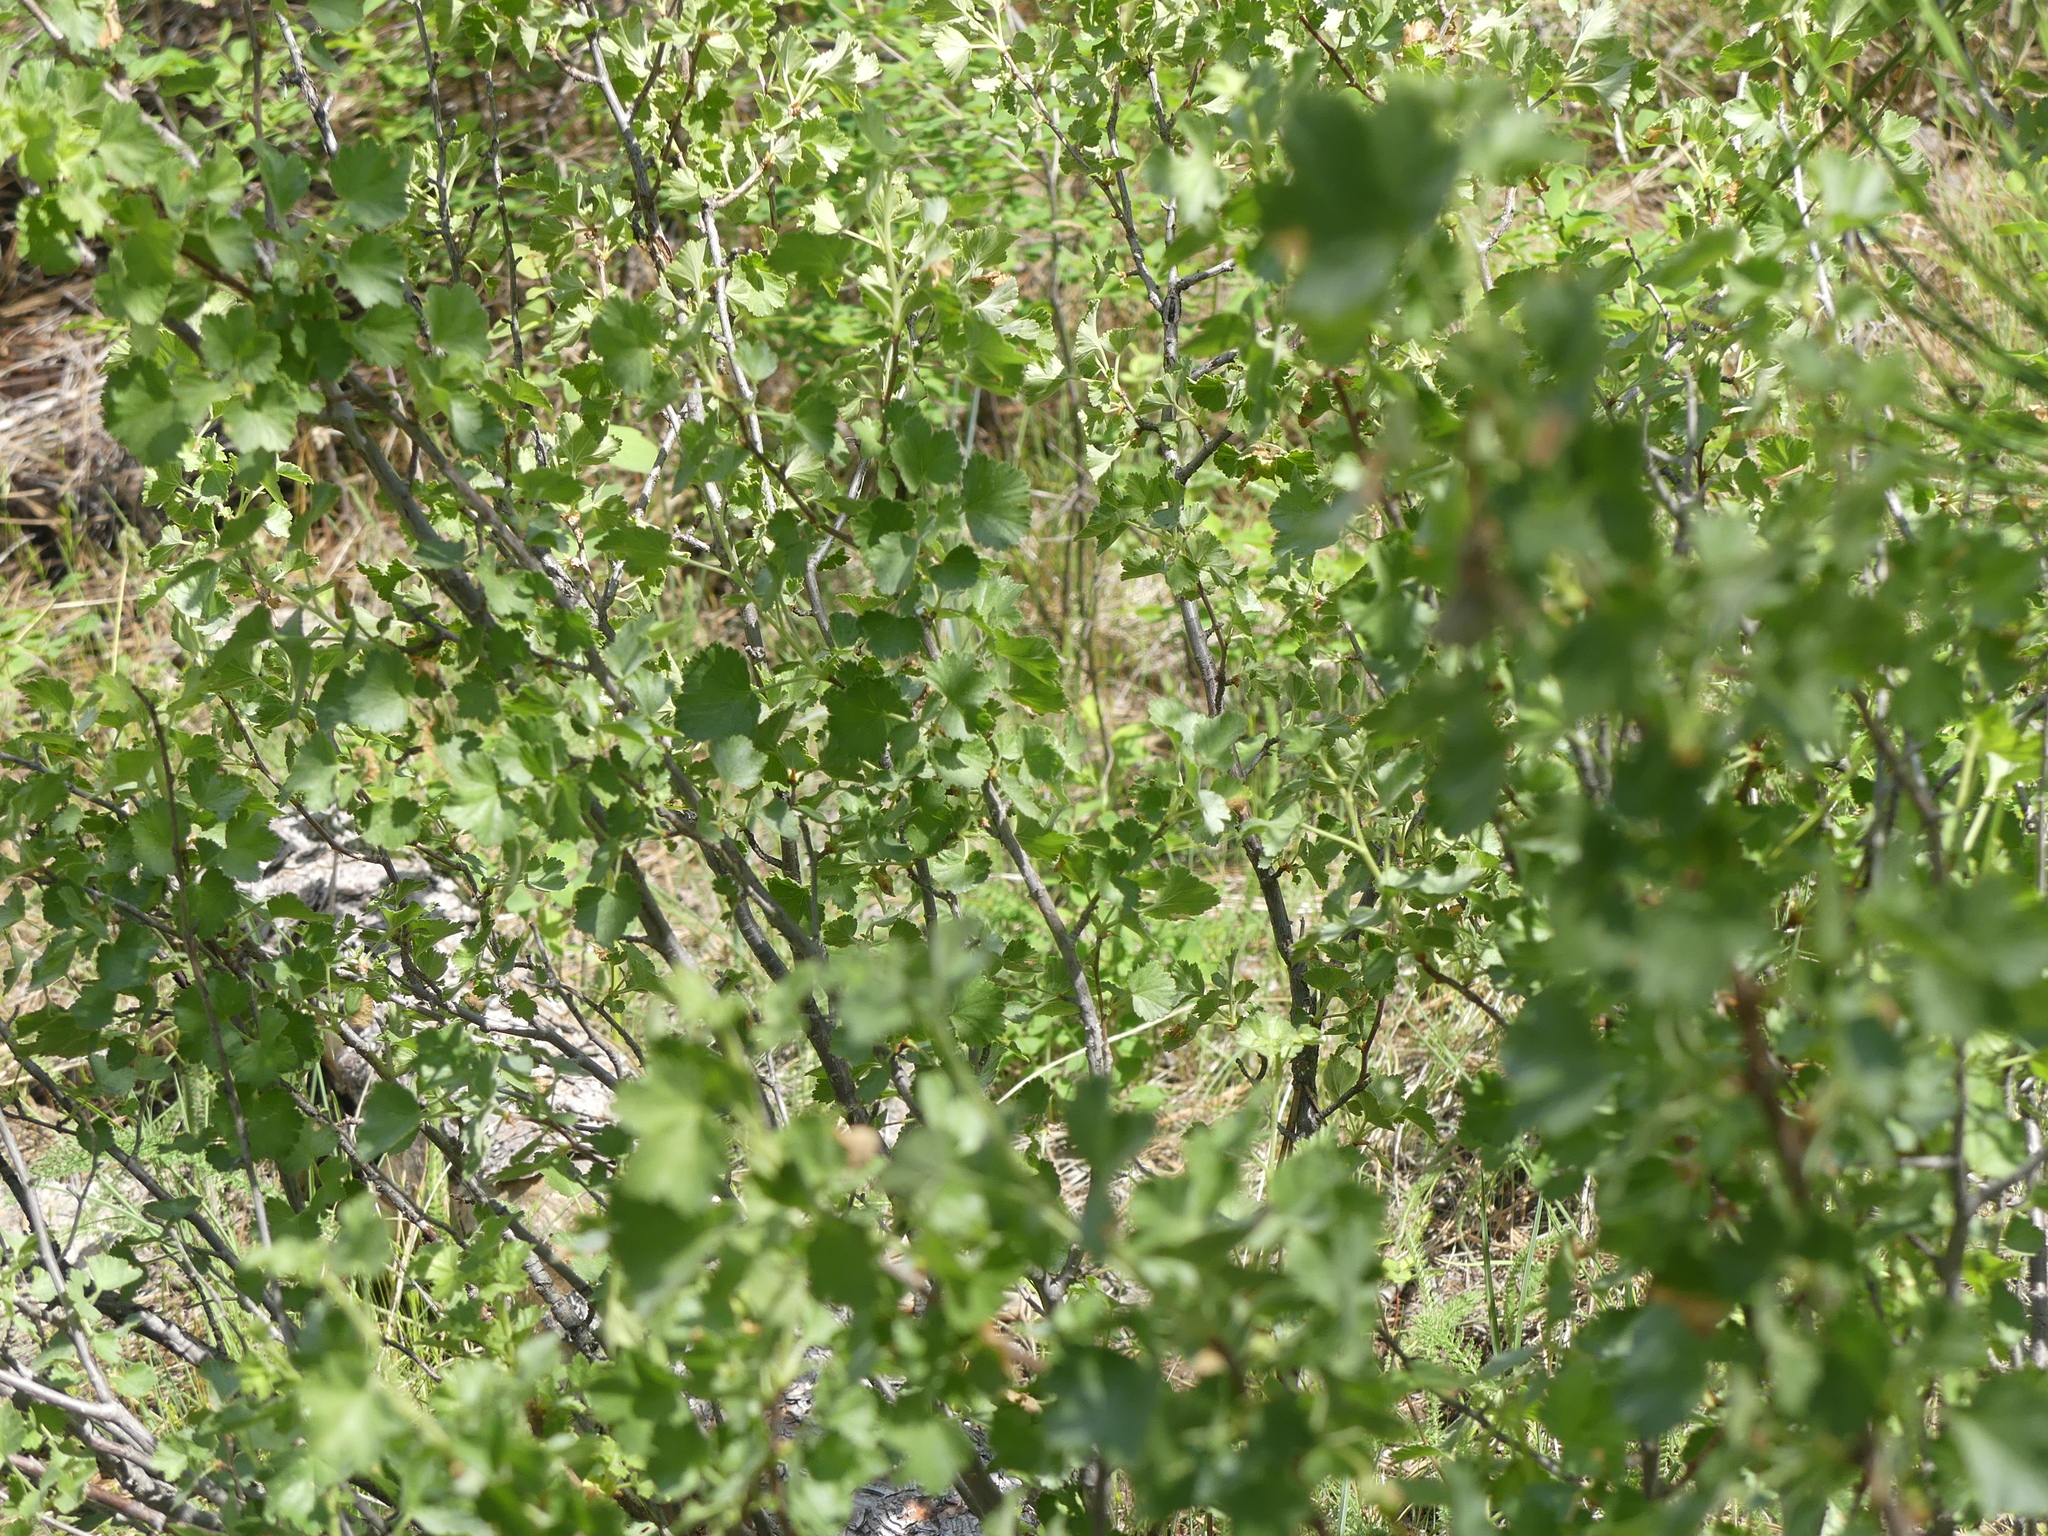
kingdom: Plantae
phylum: Tracheophyta
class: Magnoliopsida
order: Saxifragales
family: Grossulariaceae
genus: Ribes
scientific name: Ribes cereum
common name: Wax currant
